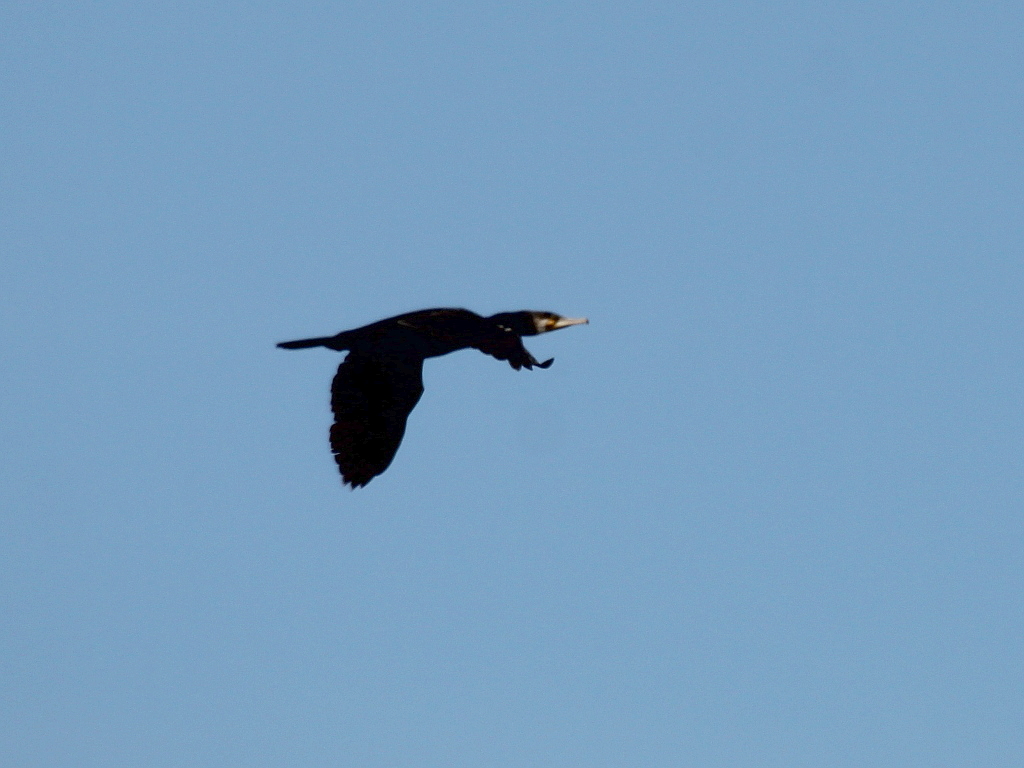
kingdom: Animalia
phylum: Chordata
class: Aves
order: Suliformes
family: Phalacrocoracidae
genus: Phalacrocorax
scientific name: Phalacrocorax carbo
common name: Great cormorant
